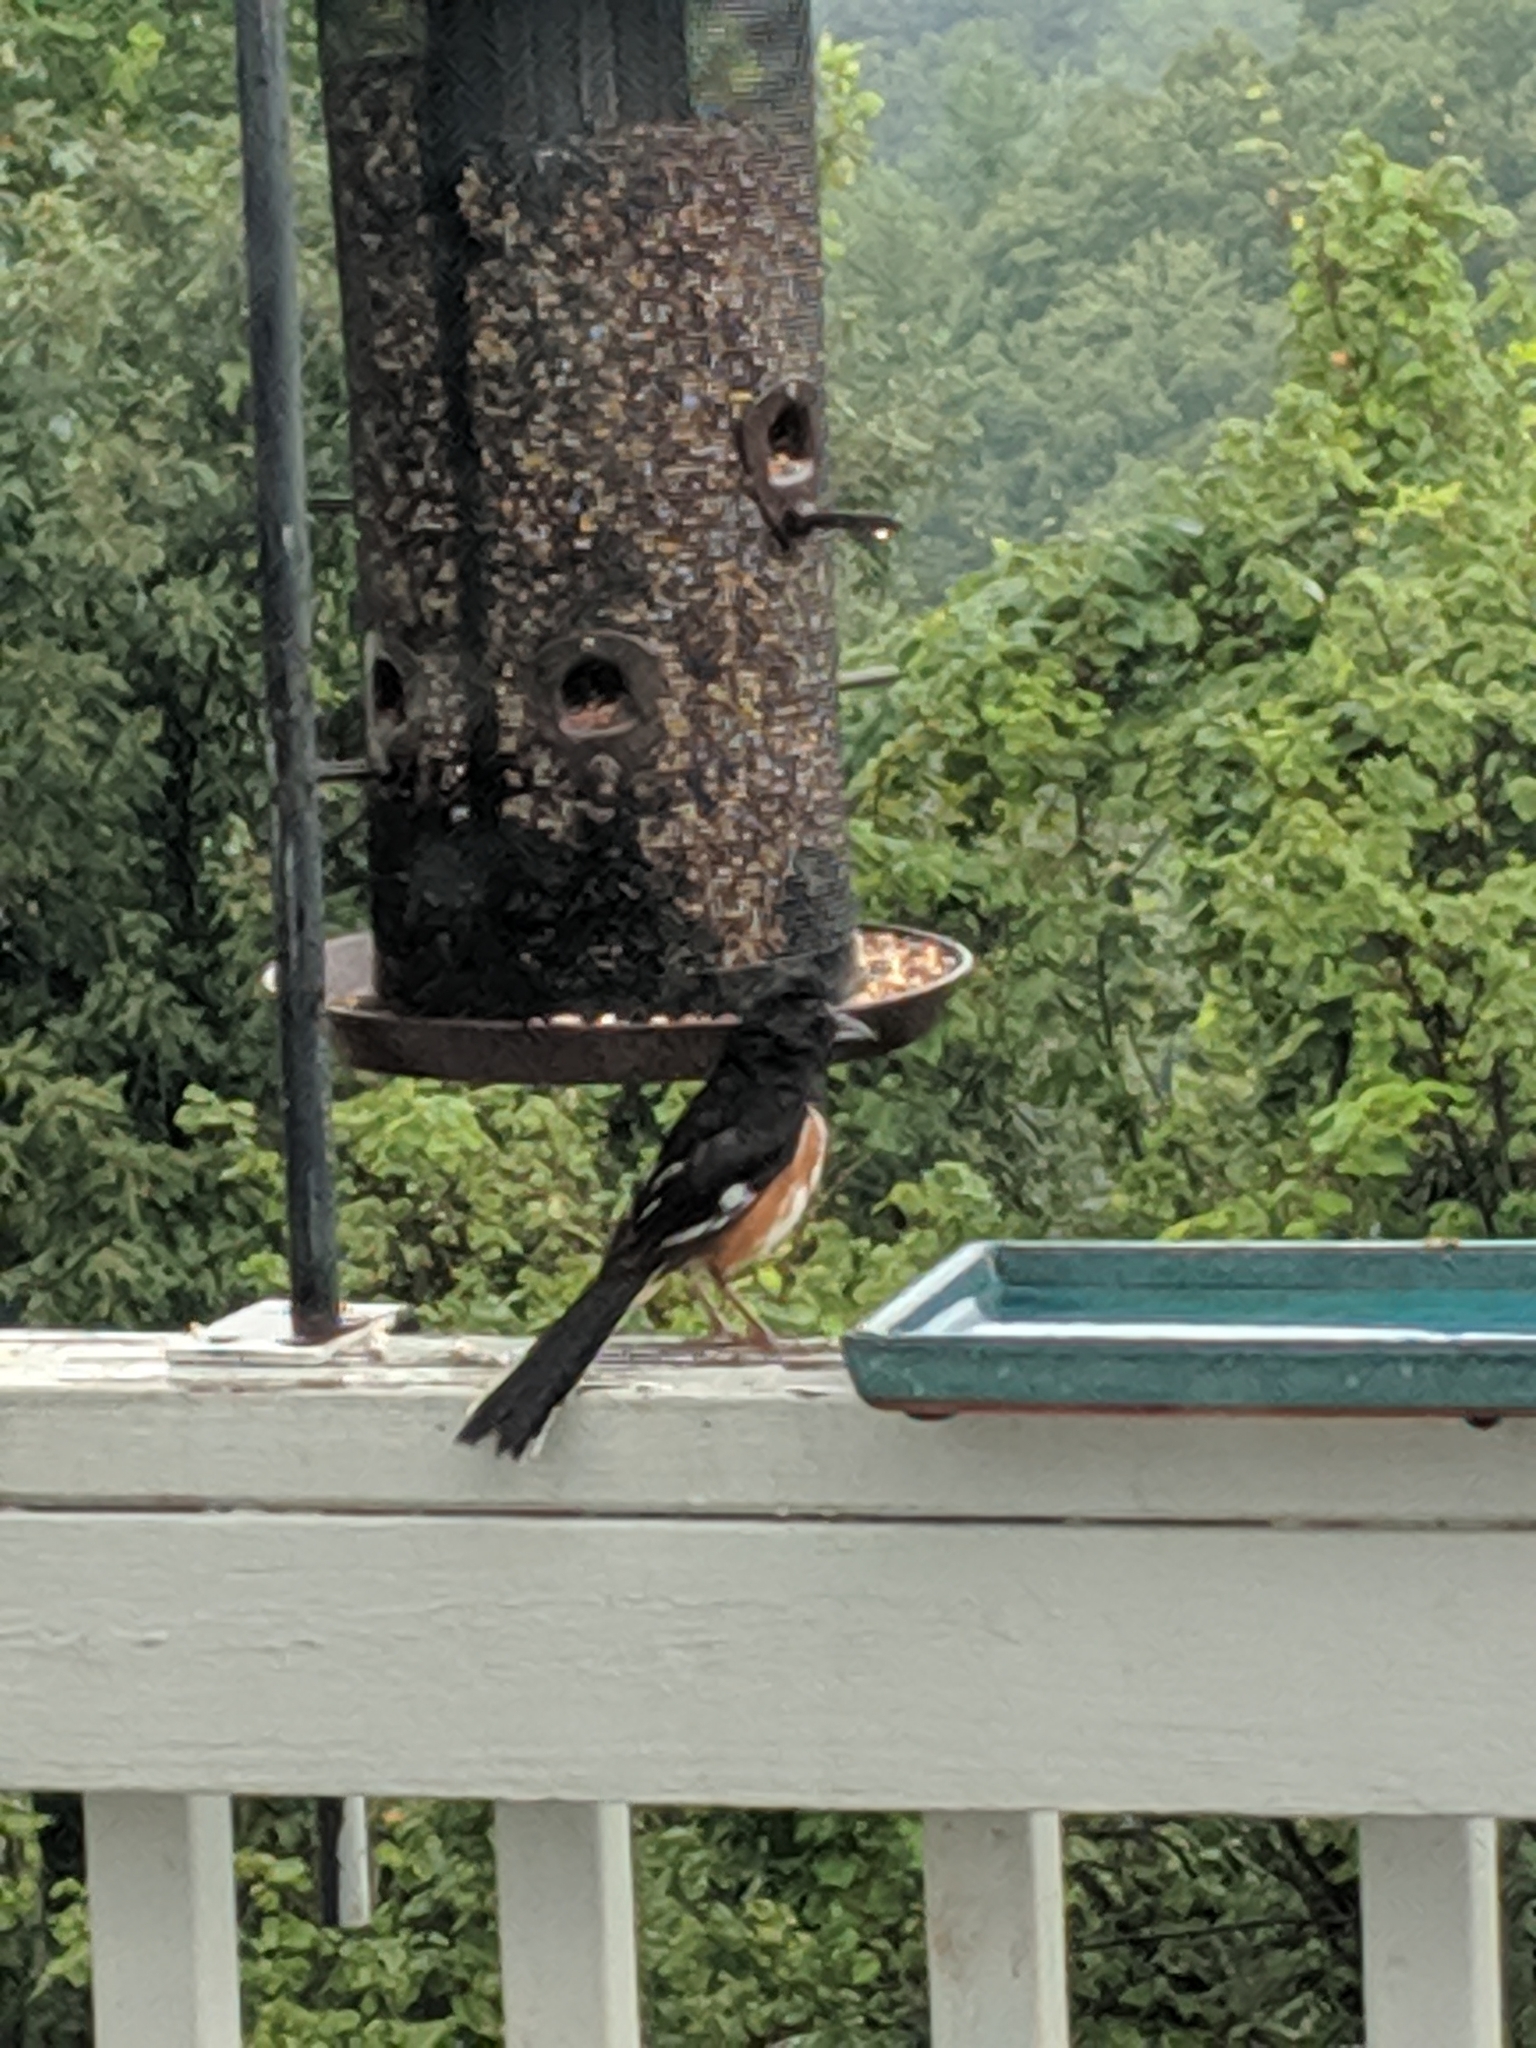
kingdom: Animalia
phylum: Chordata
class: Aves
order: Passeriformes
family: Passerellidae
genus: Pipilo
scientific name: Pipilo erythrophthalmus
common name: Eastern towhee
